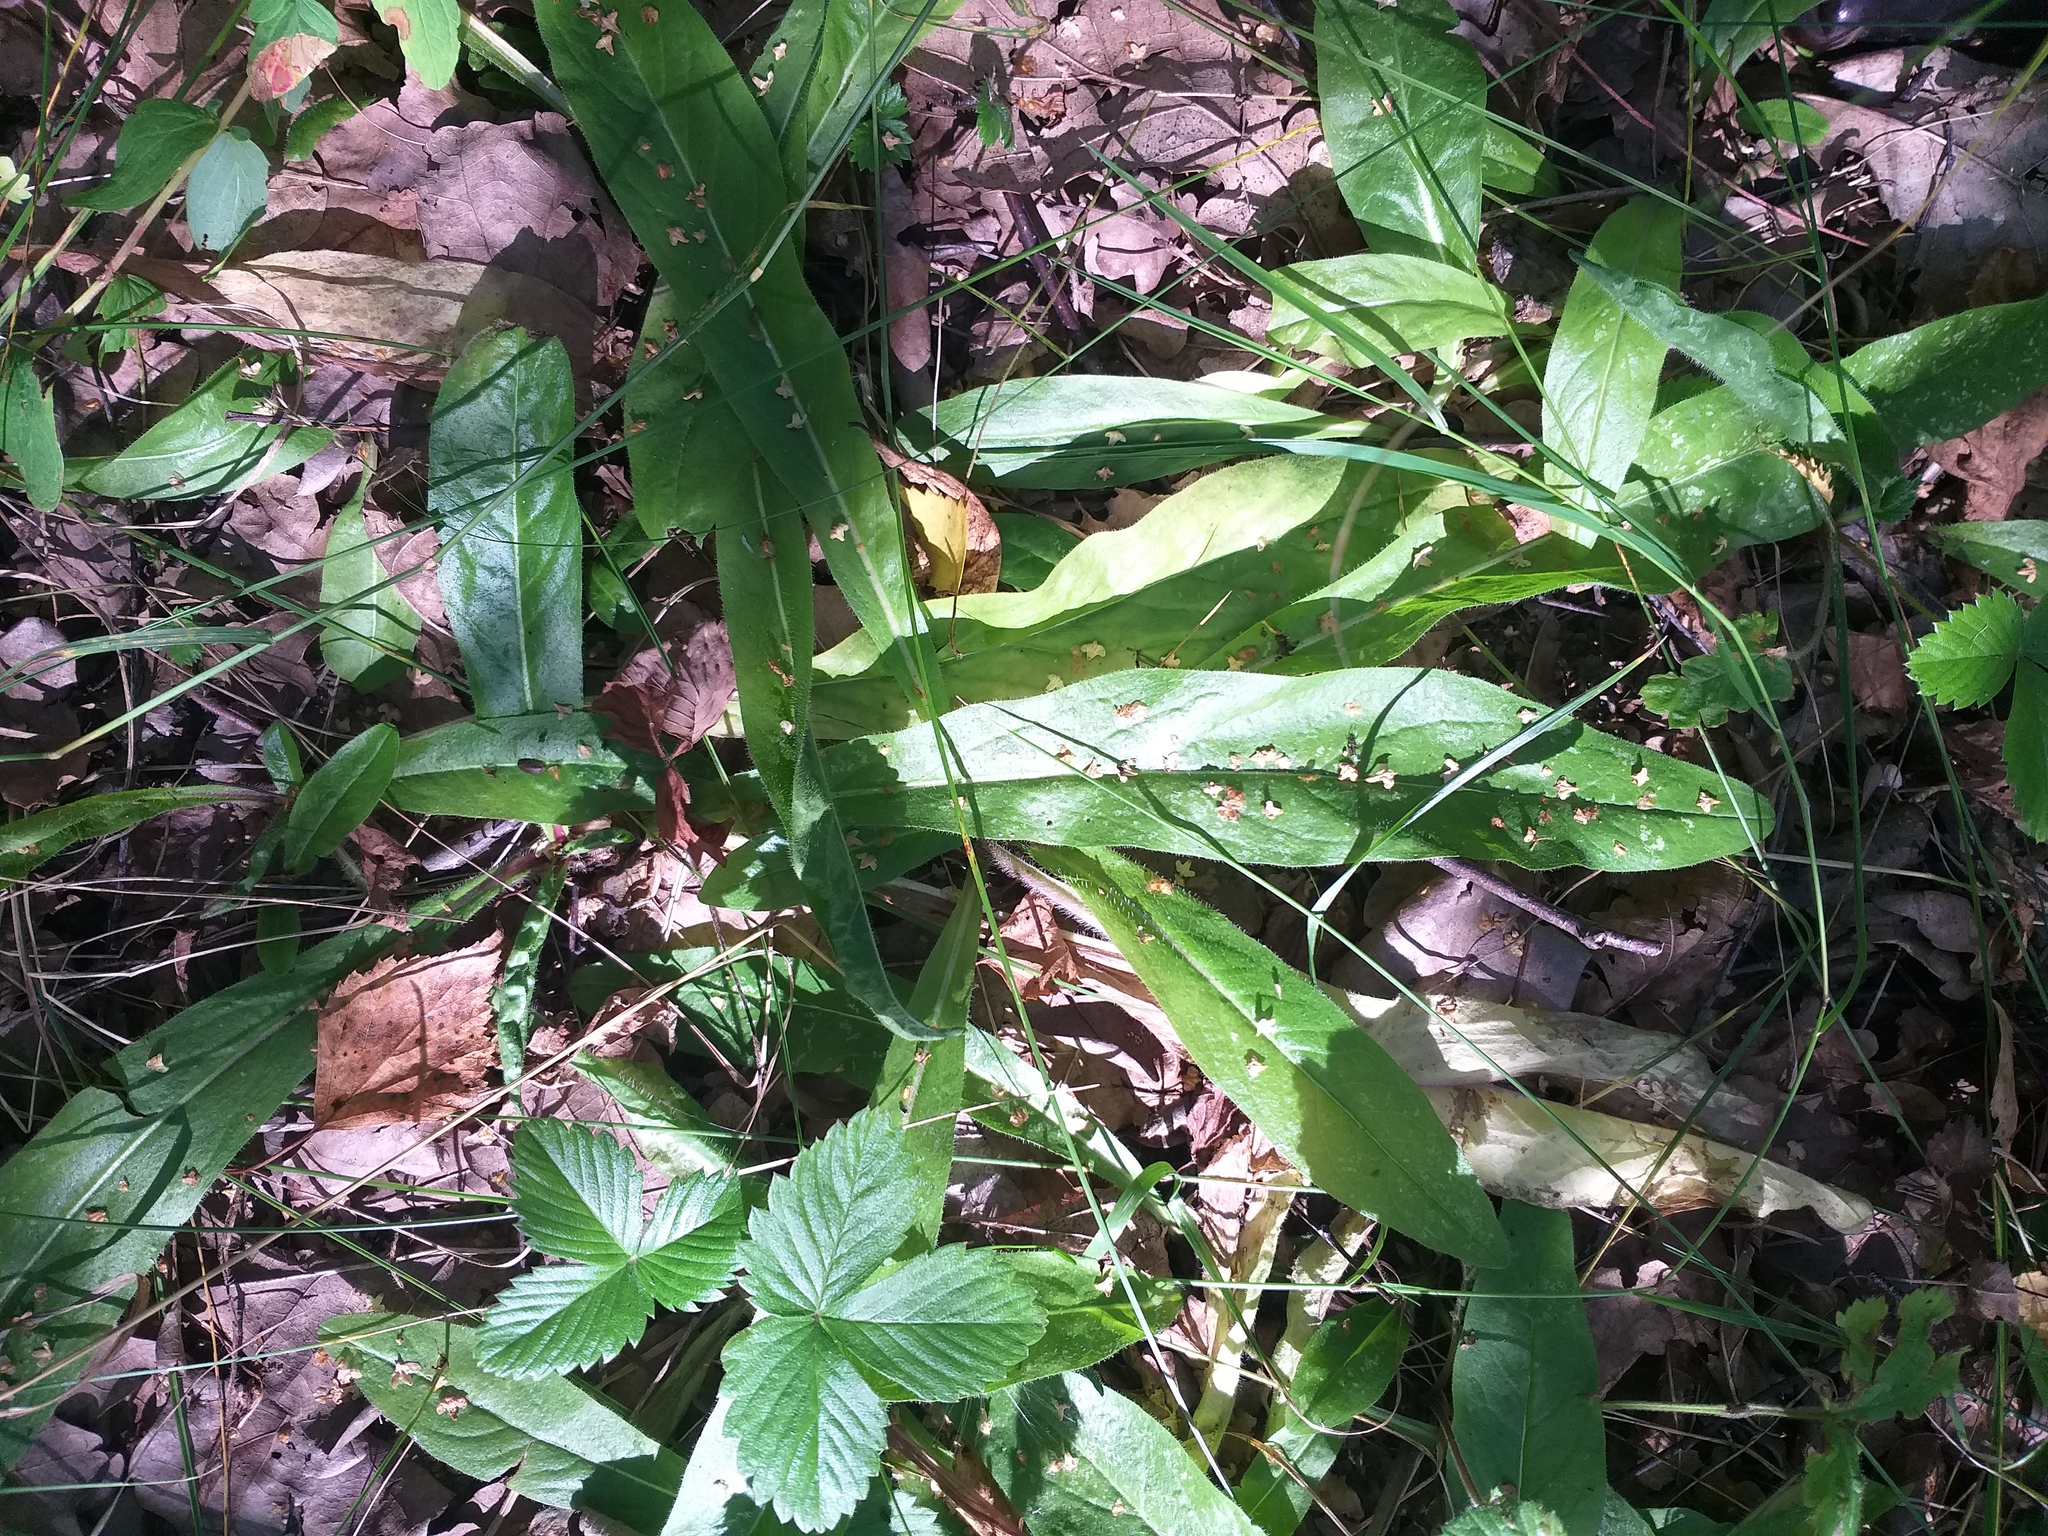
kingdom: Plantae
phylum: Tracheophyta
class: Magnoliopsida
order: Asterales
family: Asteraceae
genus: Pilosella
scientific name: Pilosella onegensis
